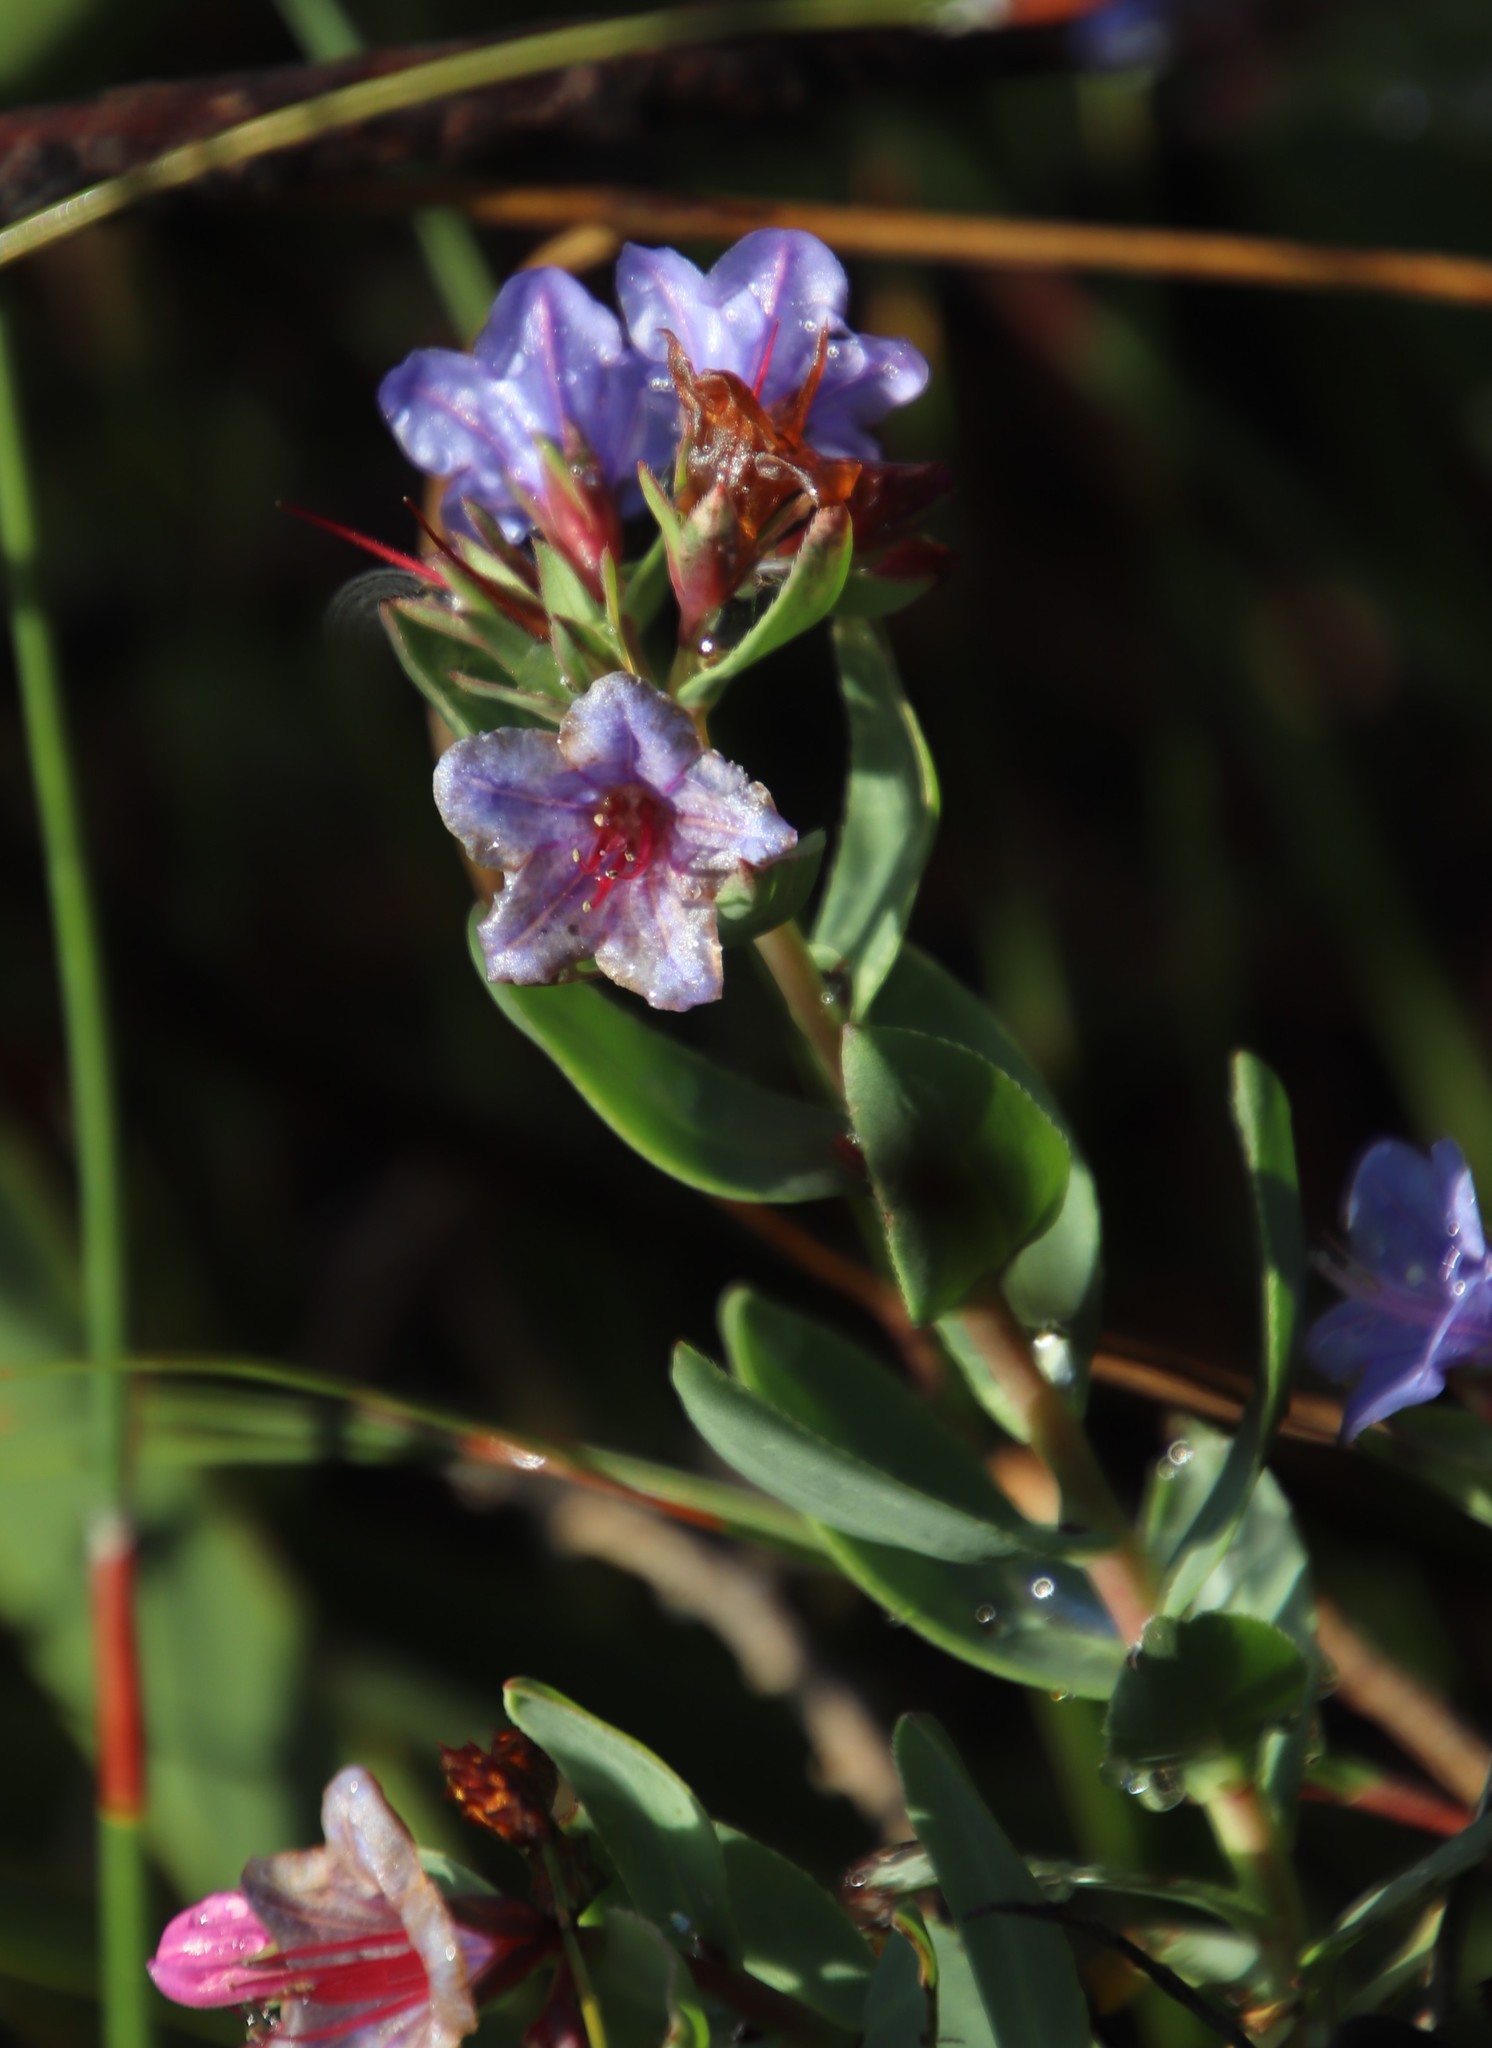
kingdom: Plantae
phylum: Tracheophyta
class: Magnoliopsida
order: Boraginales
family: Boraginaceae
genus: Lobostemon
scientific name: Lobostemon glaucophyllus
